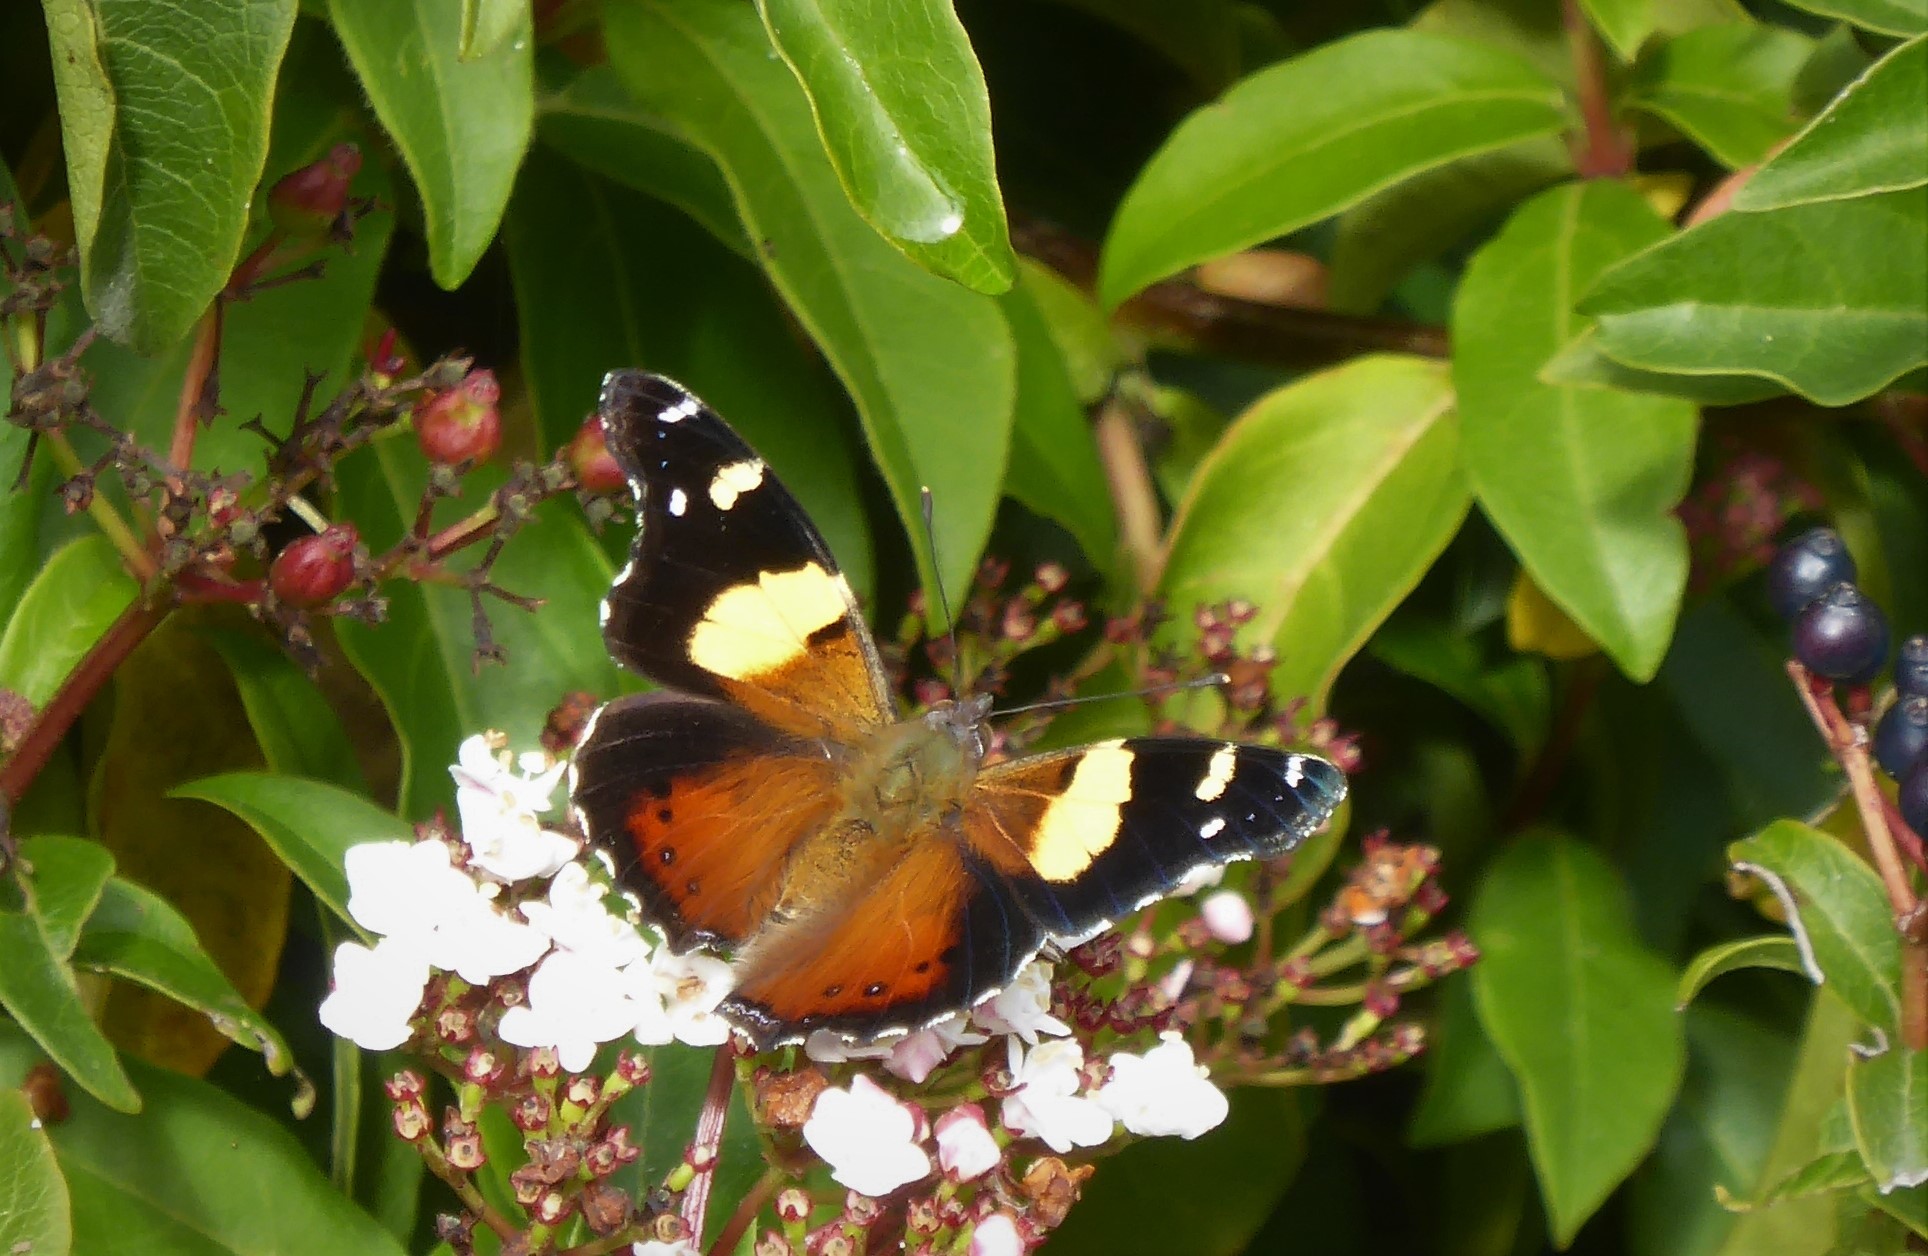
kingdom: Animalia
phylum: Arthropoda
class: Insecta
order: Lepidoptera
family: Nymphalidae
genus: Vanessa
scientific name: Vanessa itea
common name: Yellow admiral
